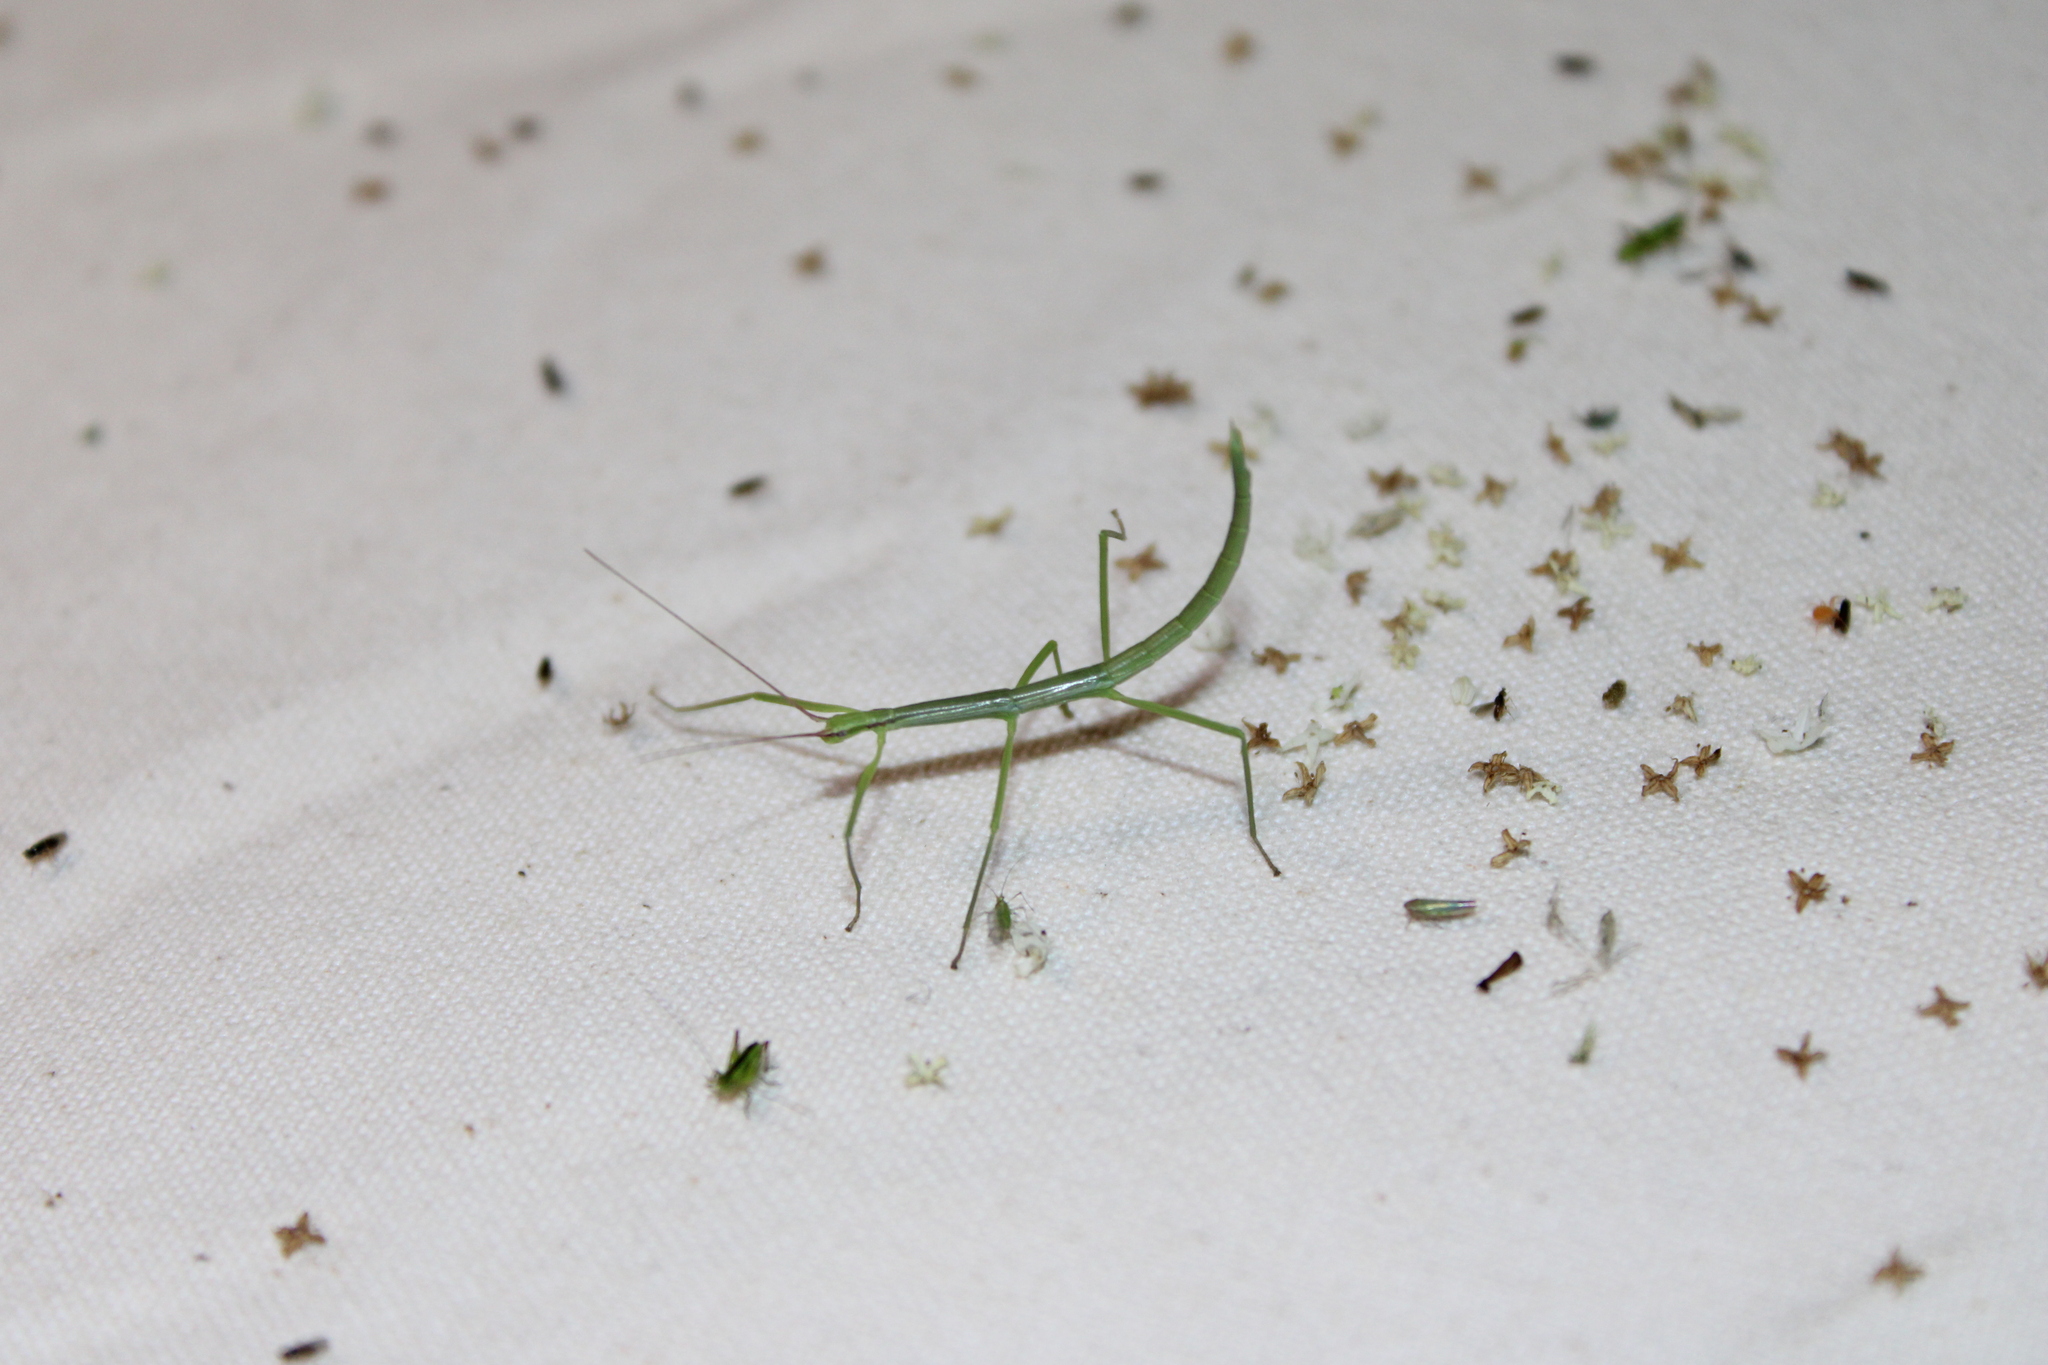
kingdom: Animalia
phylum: Arthropoda
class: Insecta
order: Phasmida
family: Diapheromeridae
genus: Manomera
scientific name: Manomera blatchleyi
